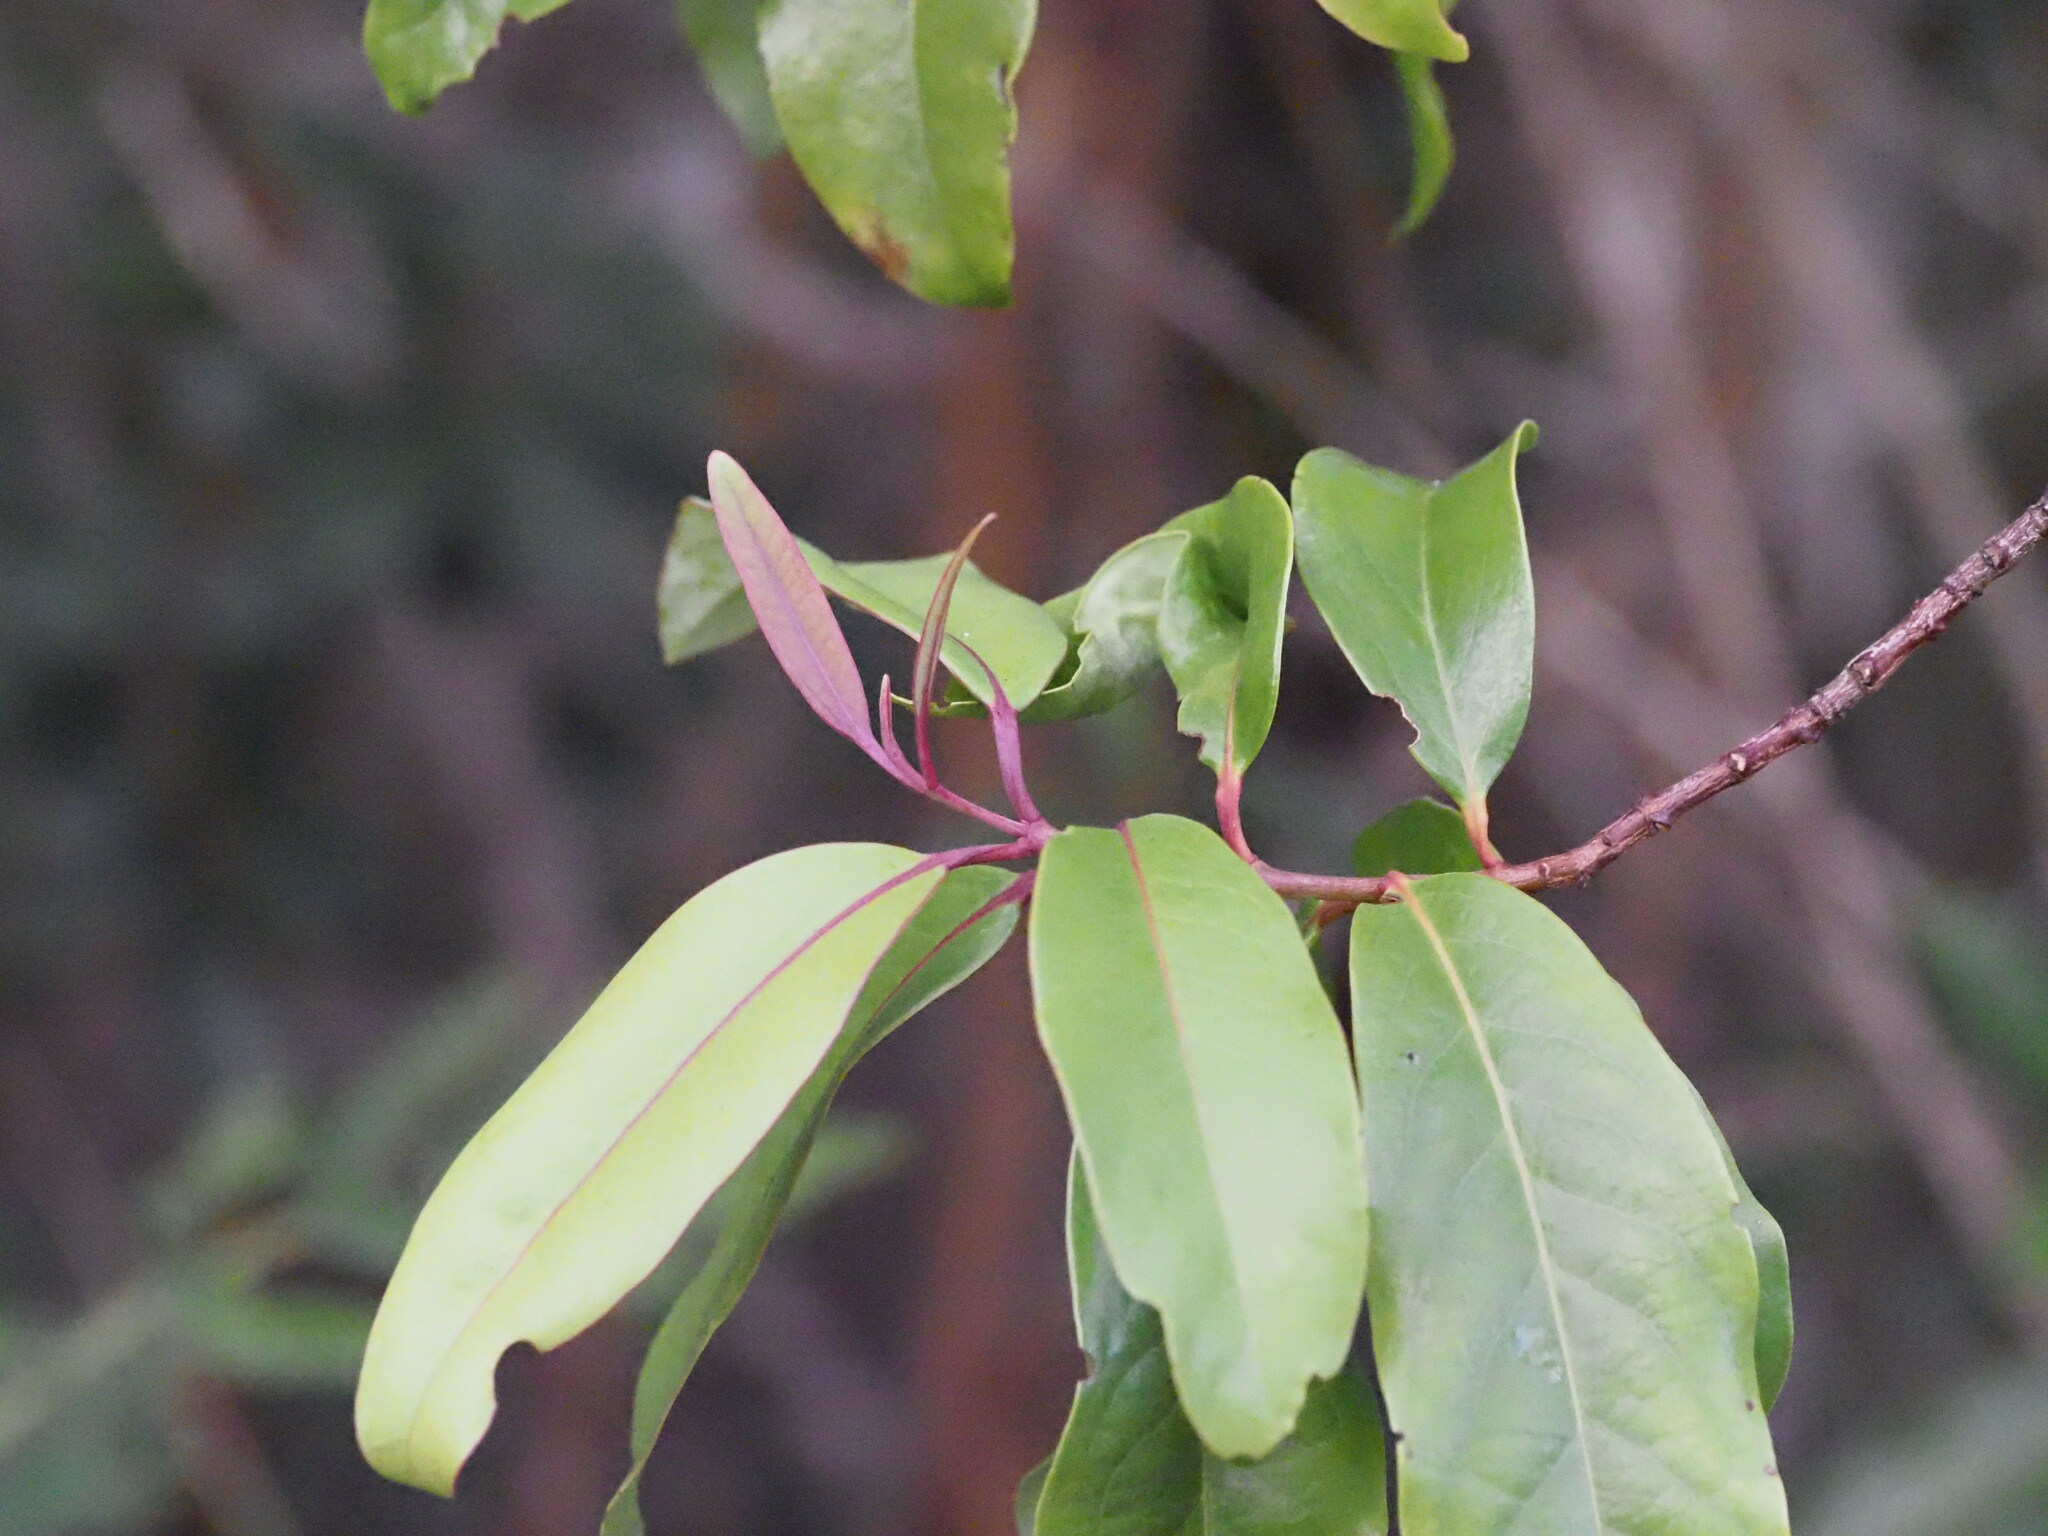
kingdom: Plantae
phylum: Tracheophyta
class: Magnoliopsida
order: Santalales
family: Santalaceae
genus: Santalum
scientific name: Santalum freycinetianum
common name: Lanai sandalwood
